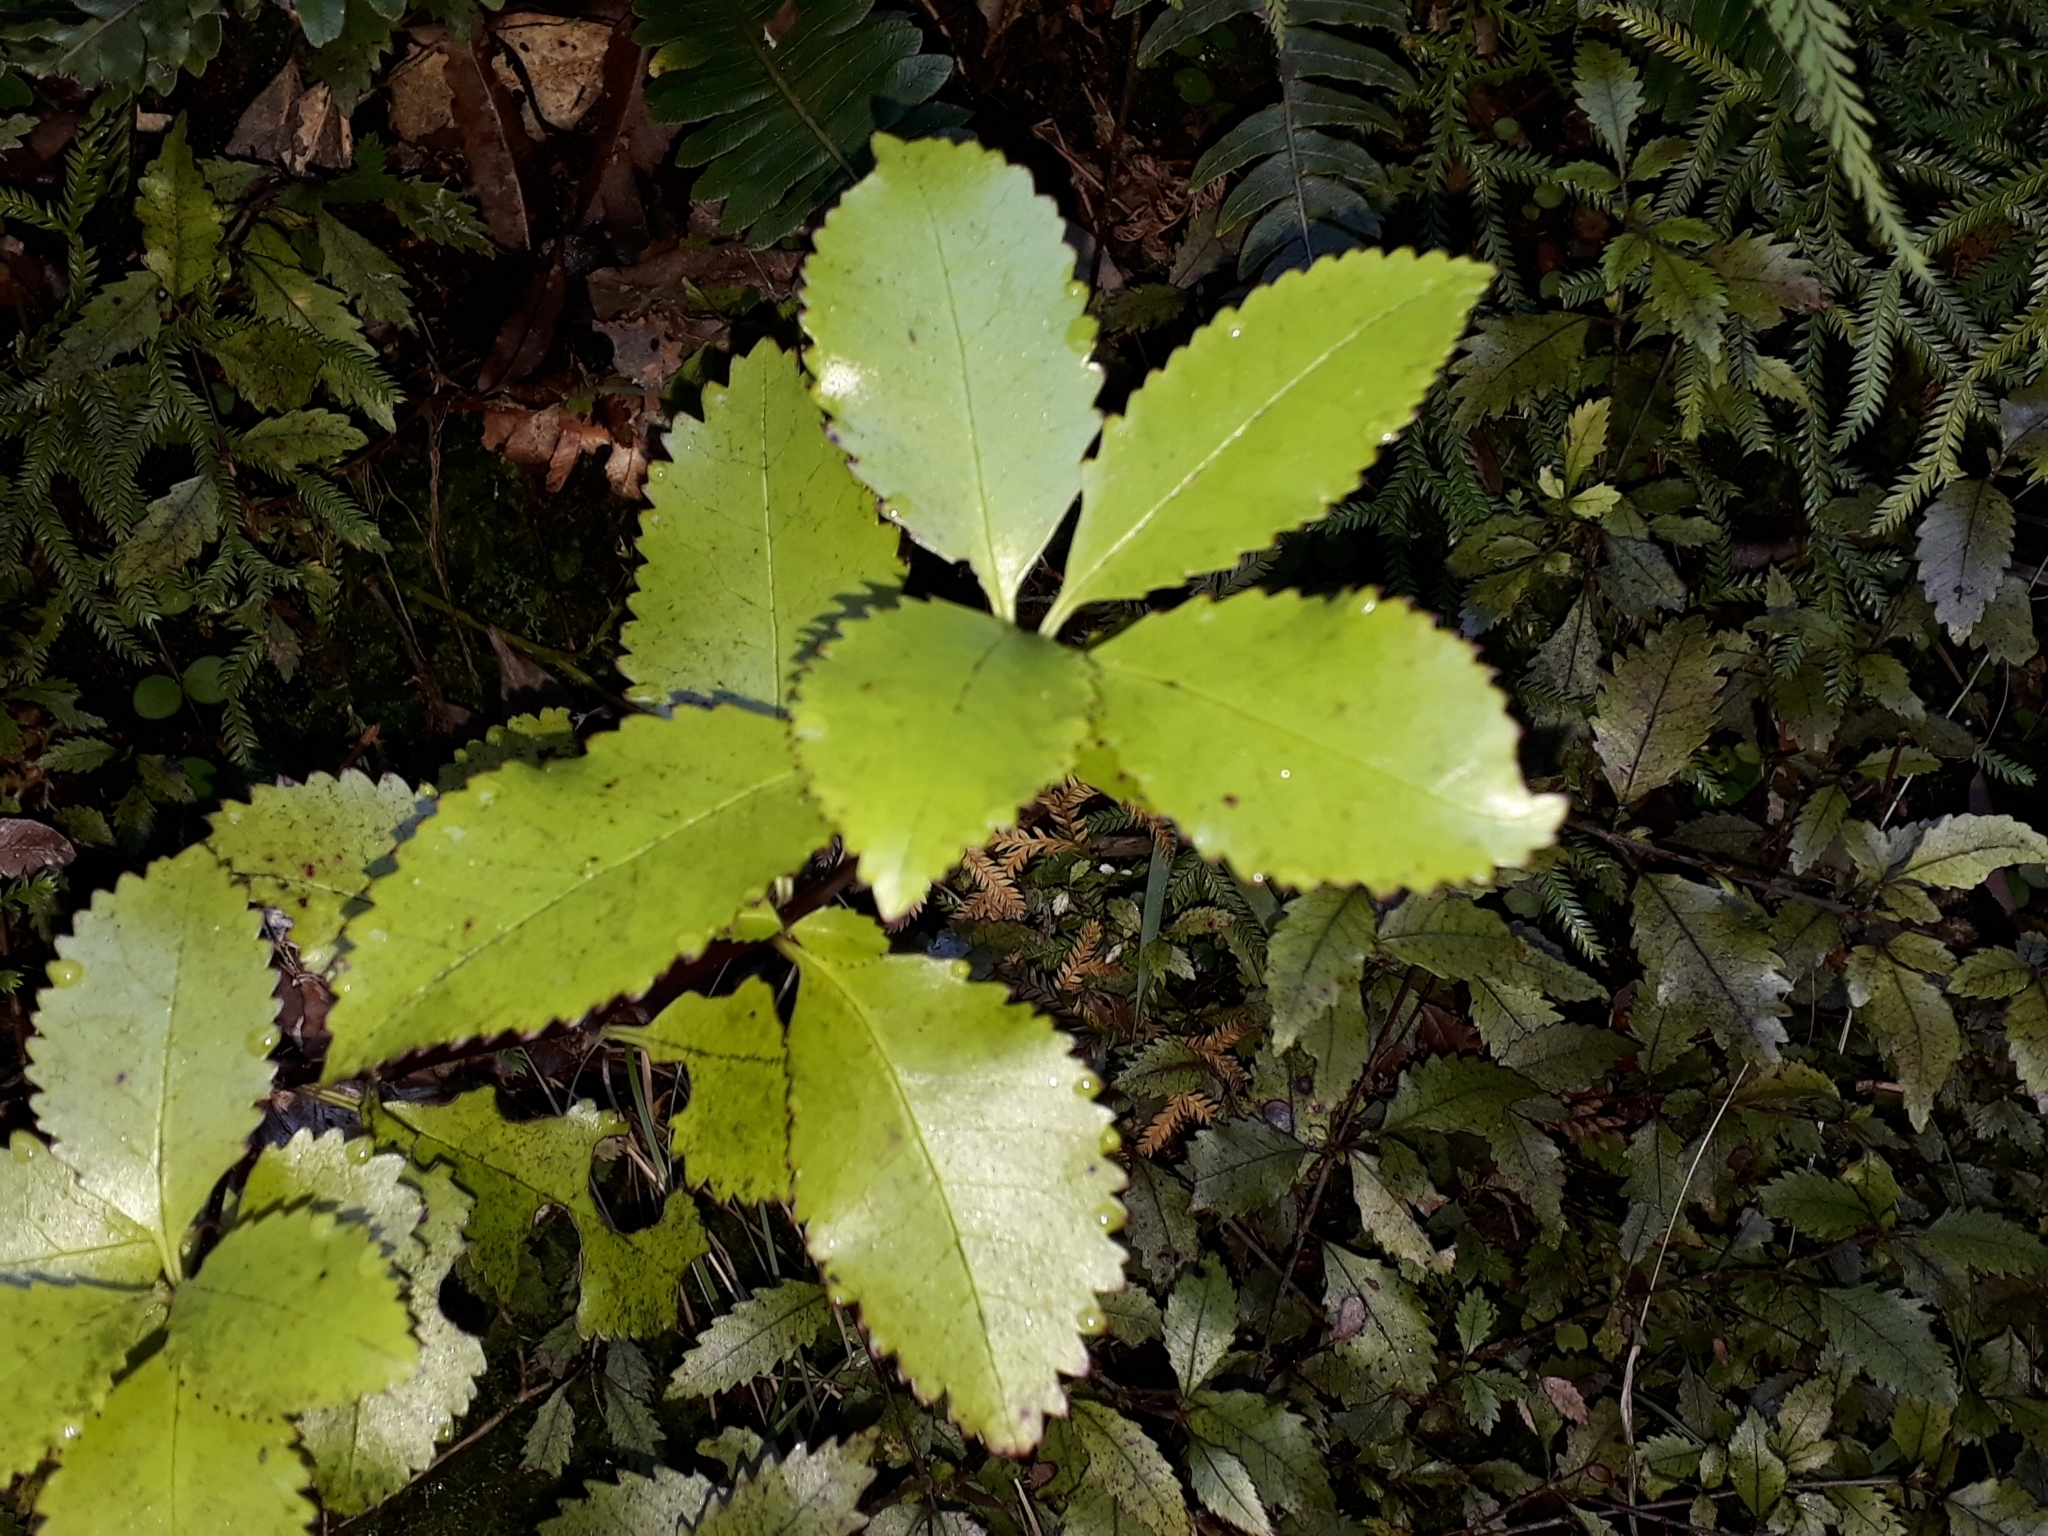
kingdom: Plantae
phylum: Tracheophyta
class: Magnoliopsida
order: Chloranthales
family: Chloranthaceae
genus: Ascarina
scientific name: Ascarina lucida
